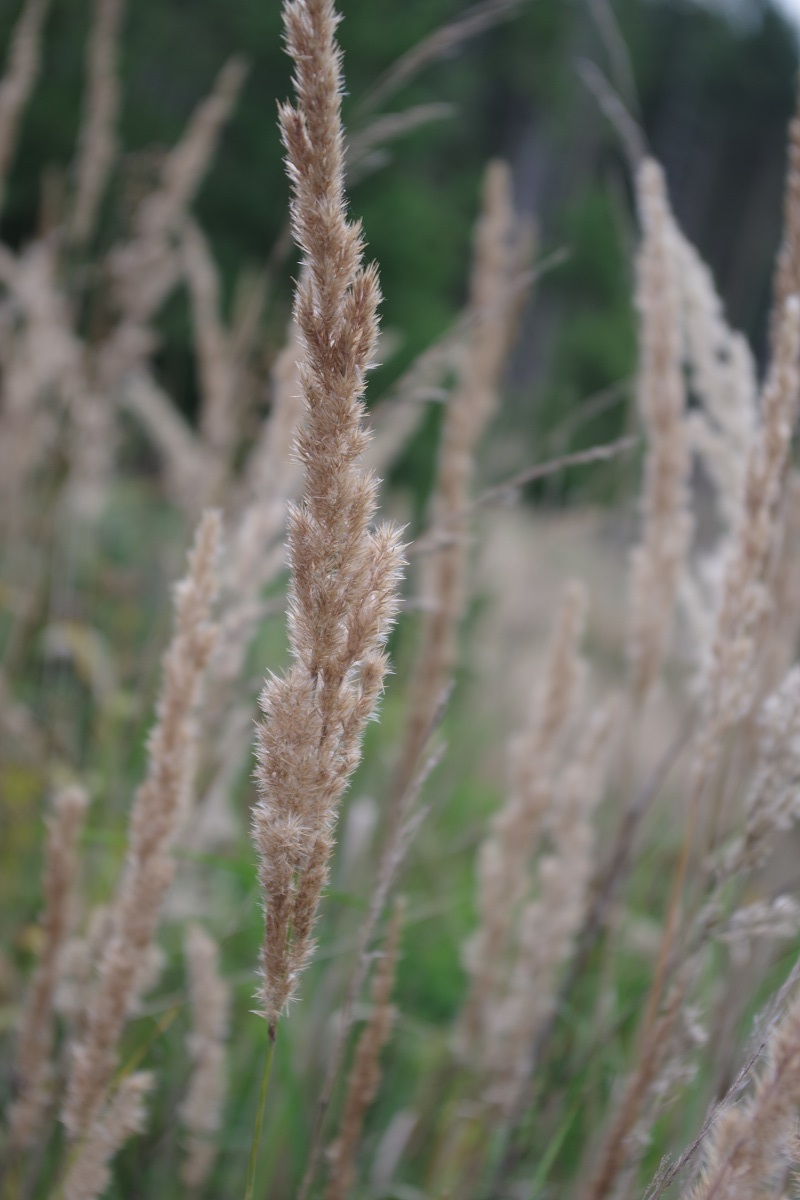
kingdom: Plantae
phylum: Tracheophyta
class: Liliopsida
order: Poales
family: Poaceae
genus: Calamagrostis
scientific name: Calamagrostis epigejos
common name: Wood small-reed
